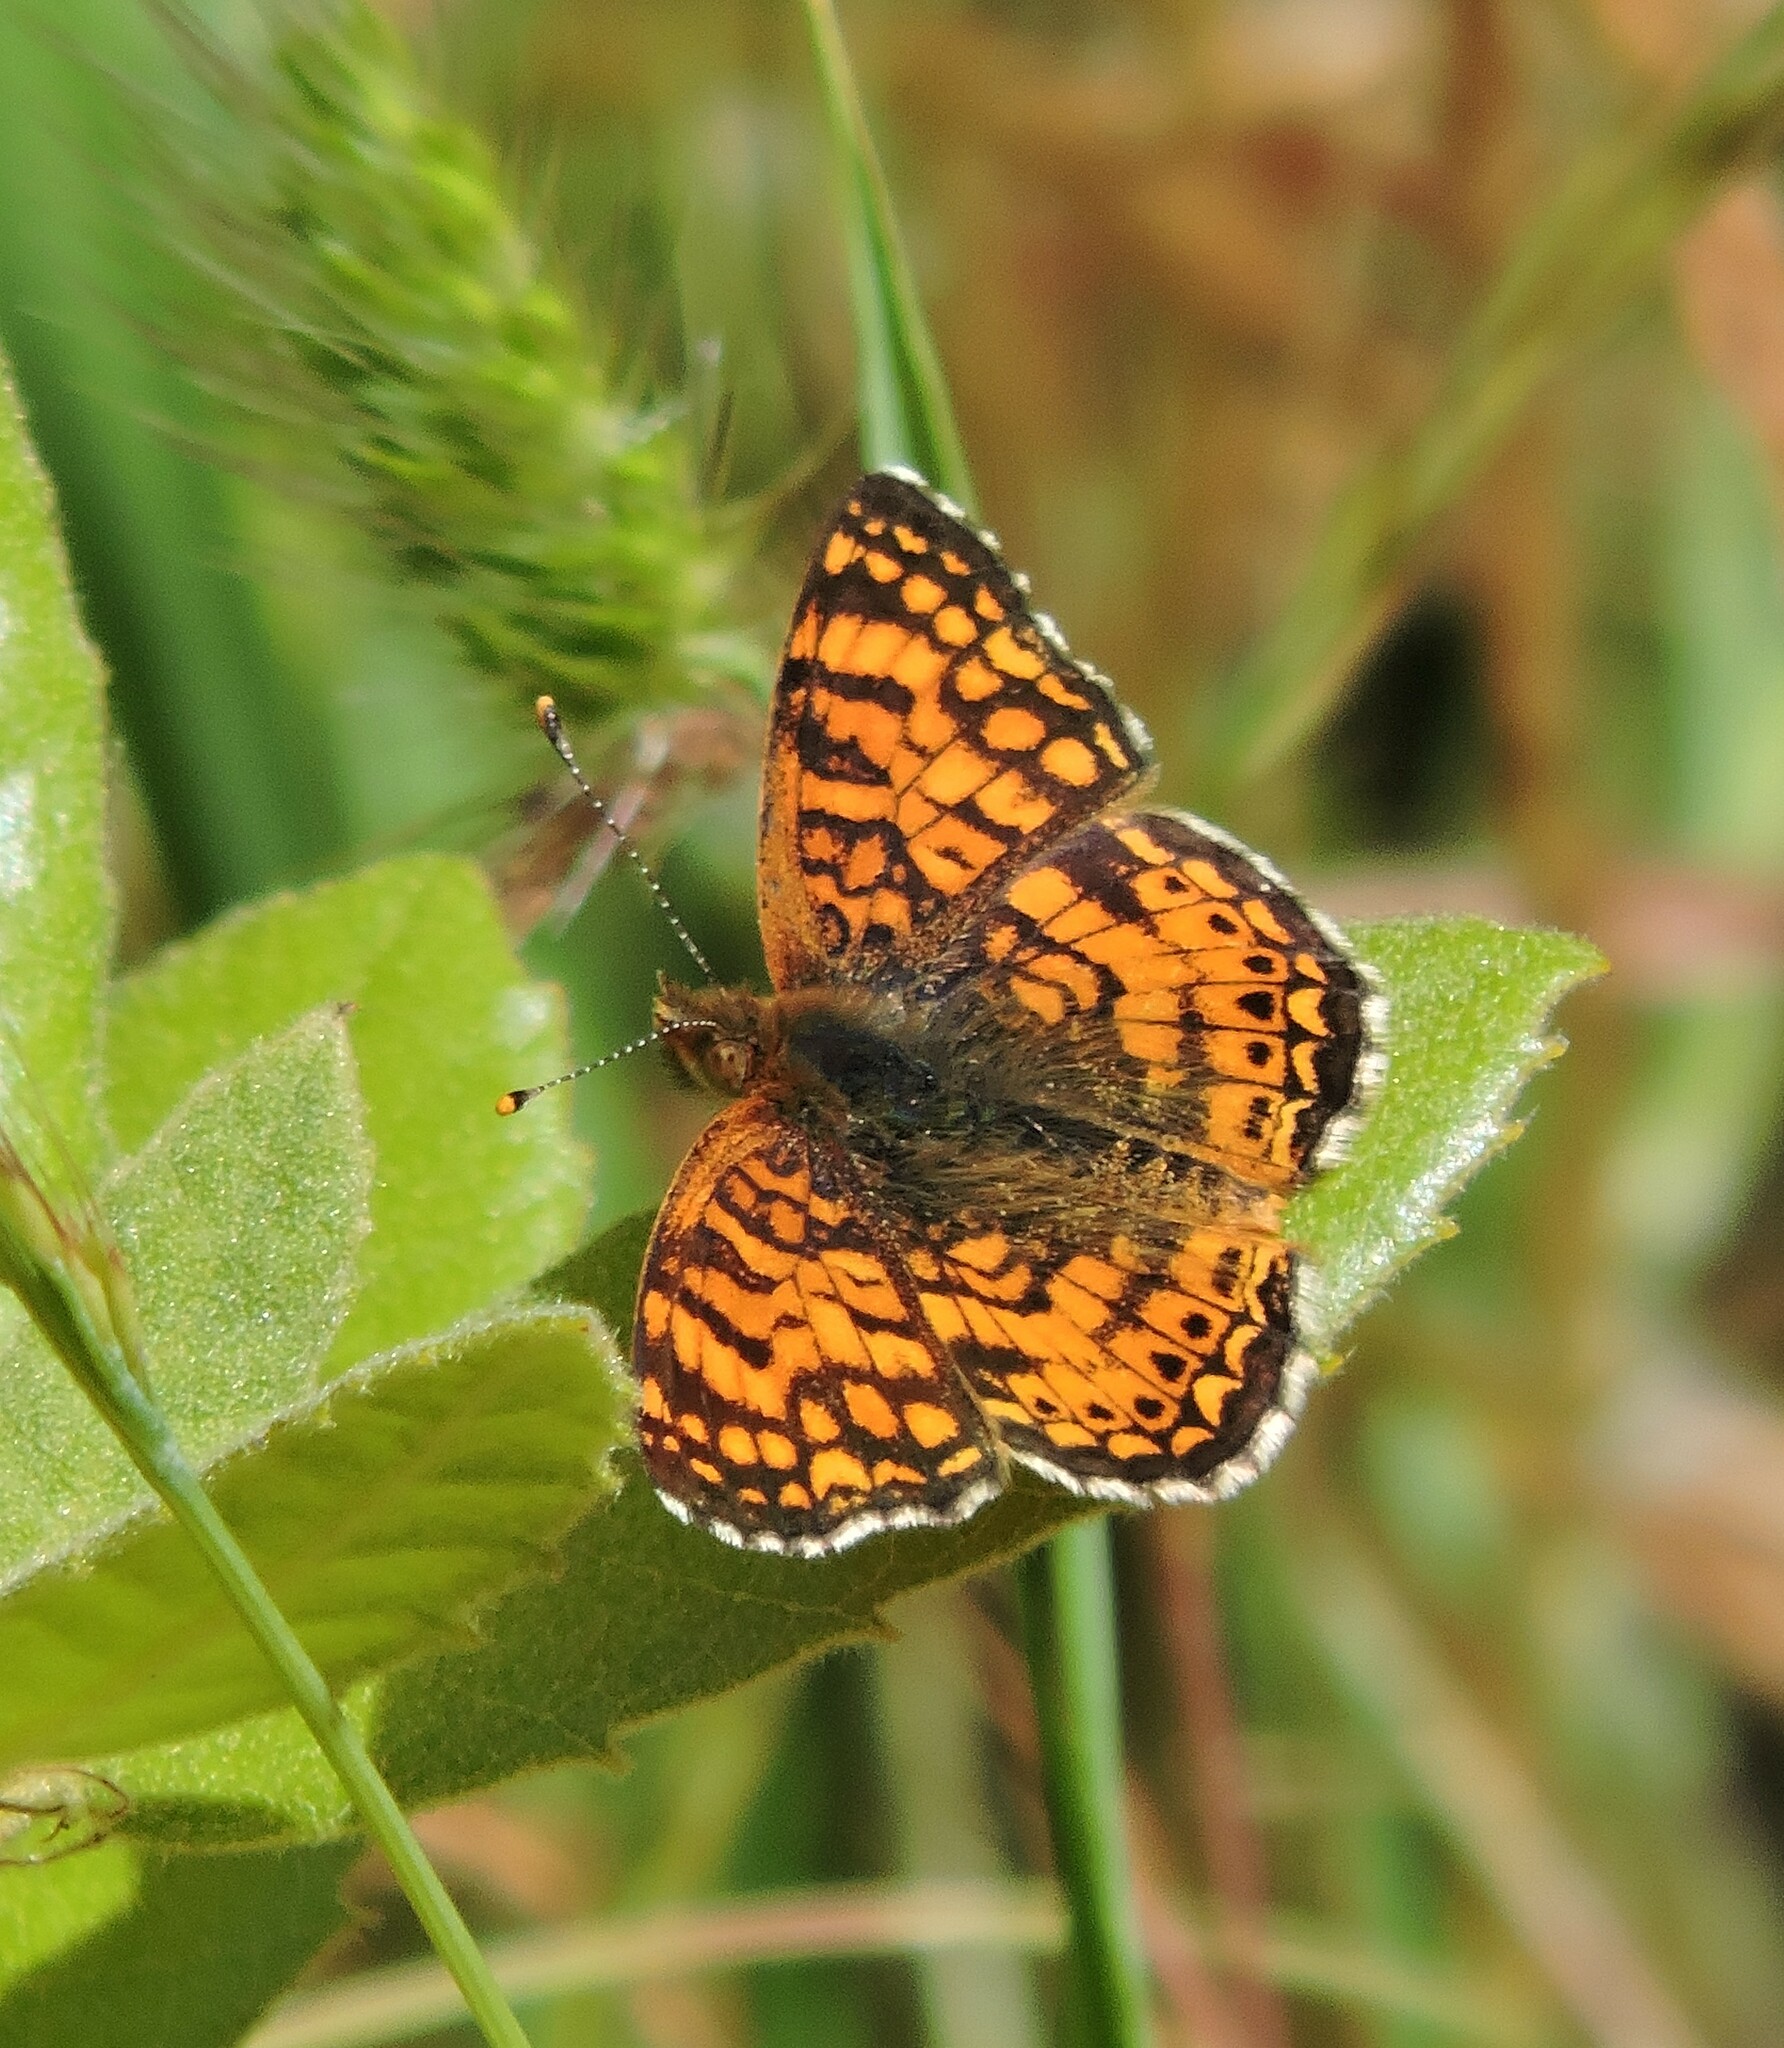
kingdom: Animalia
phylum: Arthropoda
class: Insecta
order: Lepidoptera
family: Nymphalidae
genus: Eresia
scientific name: Eresia aveyrona
